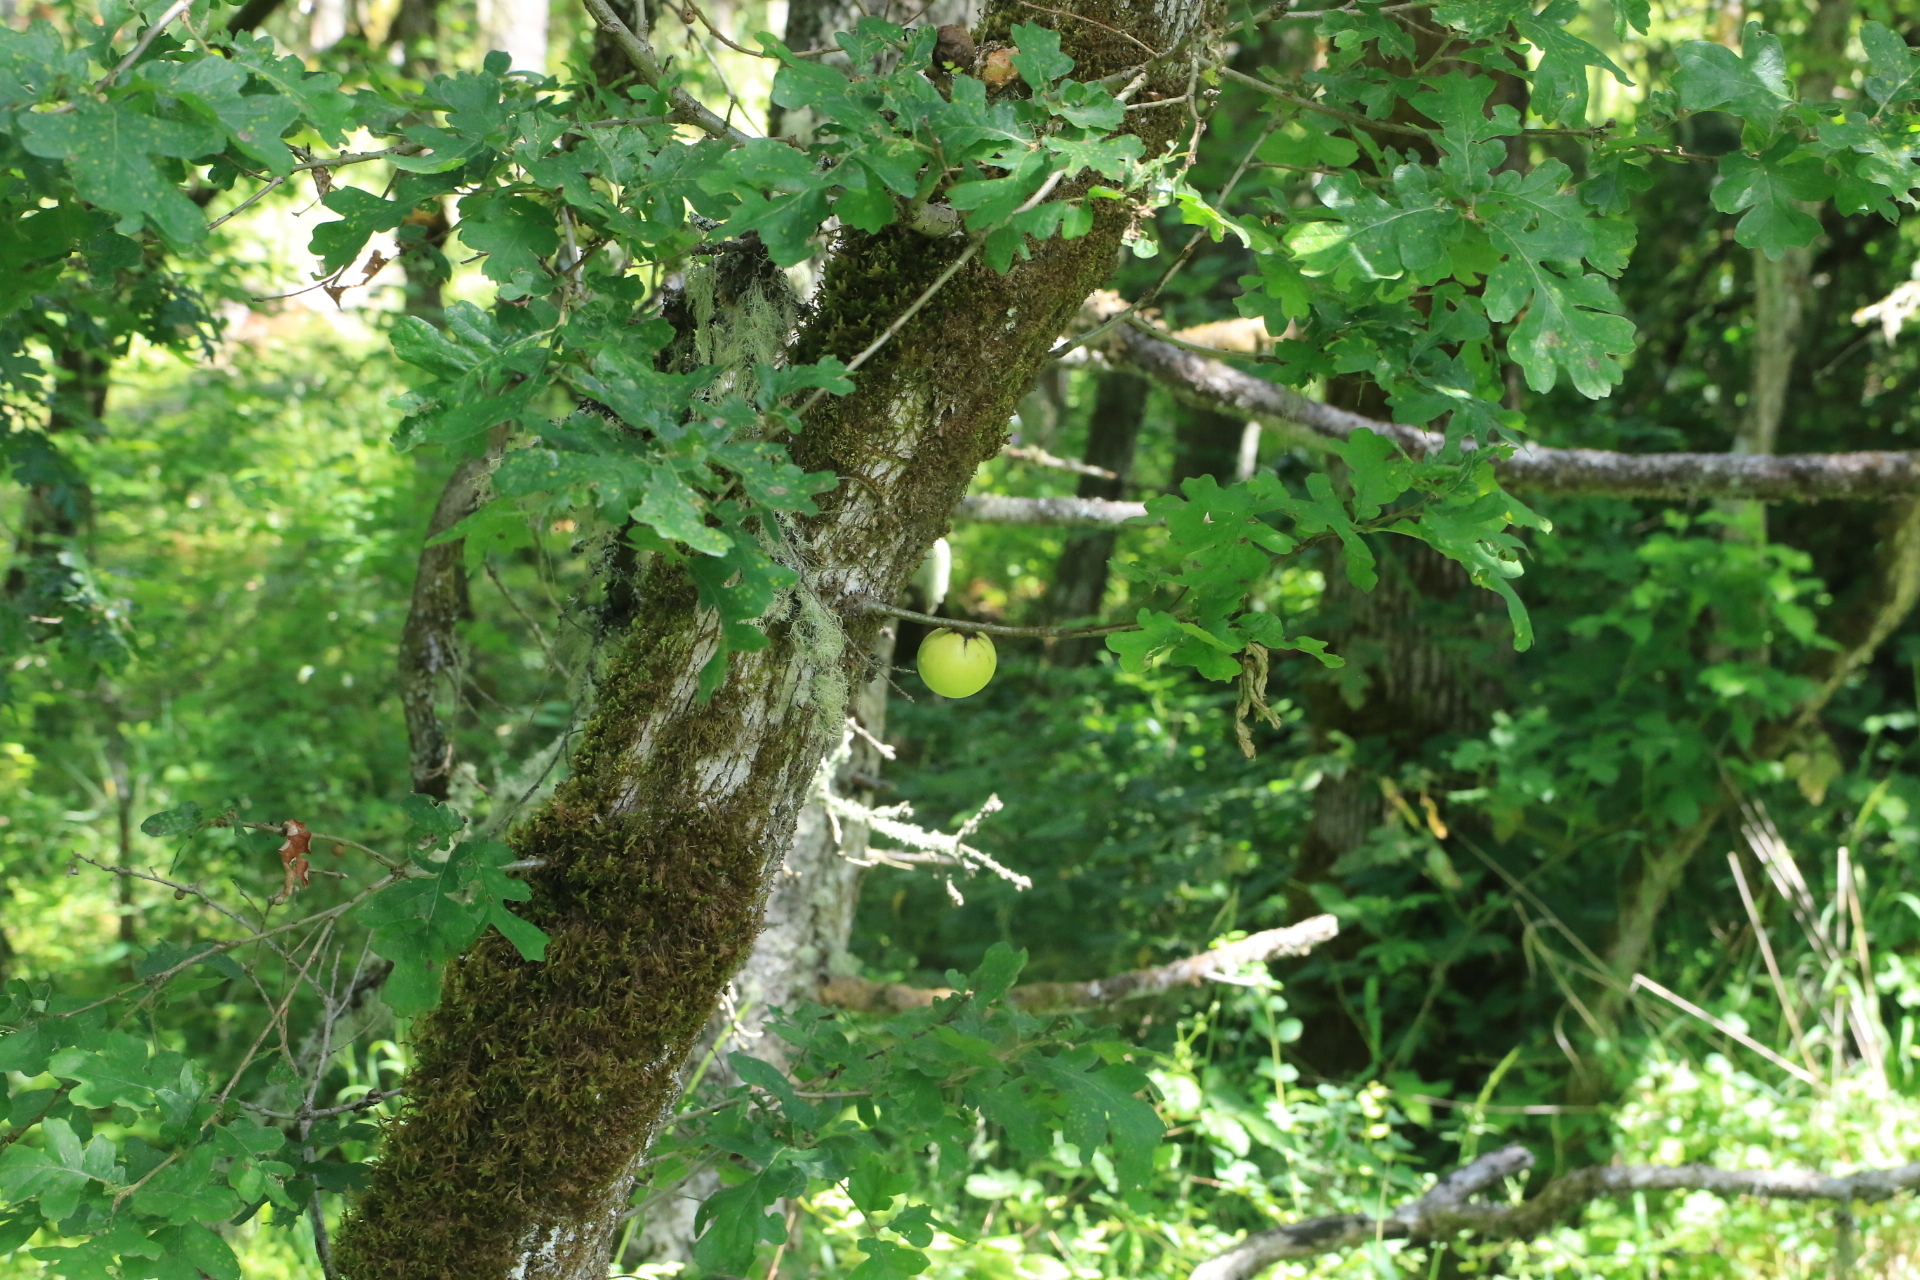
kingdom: Animalia
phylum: Arthropoda
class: Insecta
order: Hymenoptera
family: Cynipidae
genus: Andricus
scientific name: Andricus quercuscalifornicus
